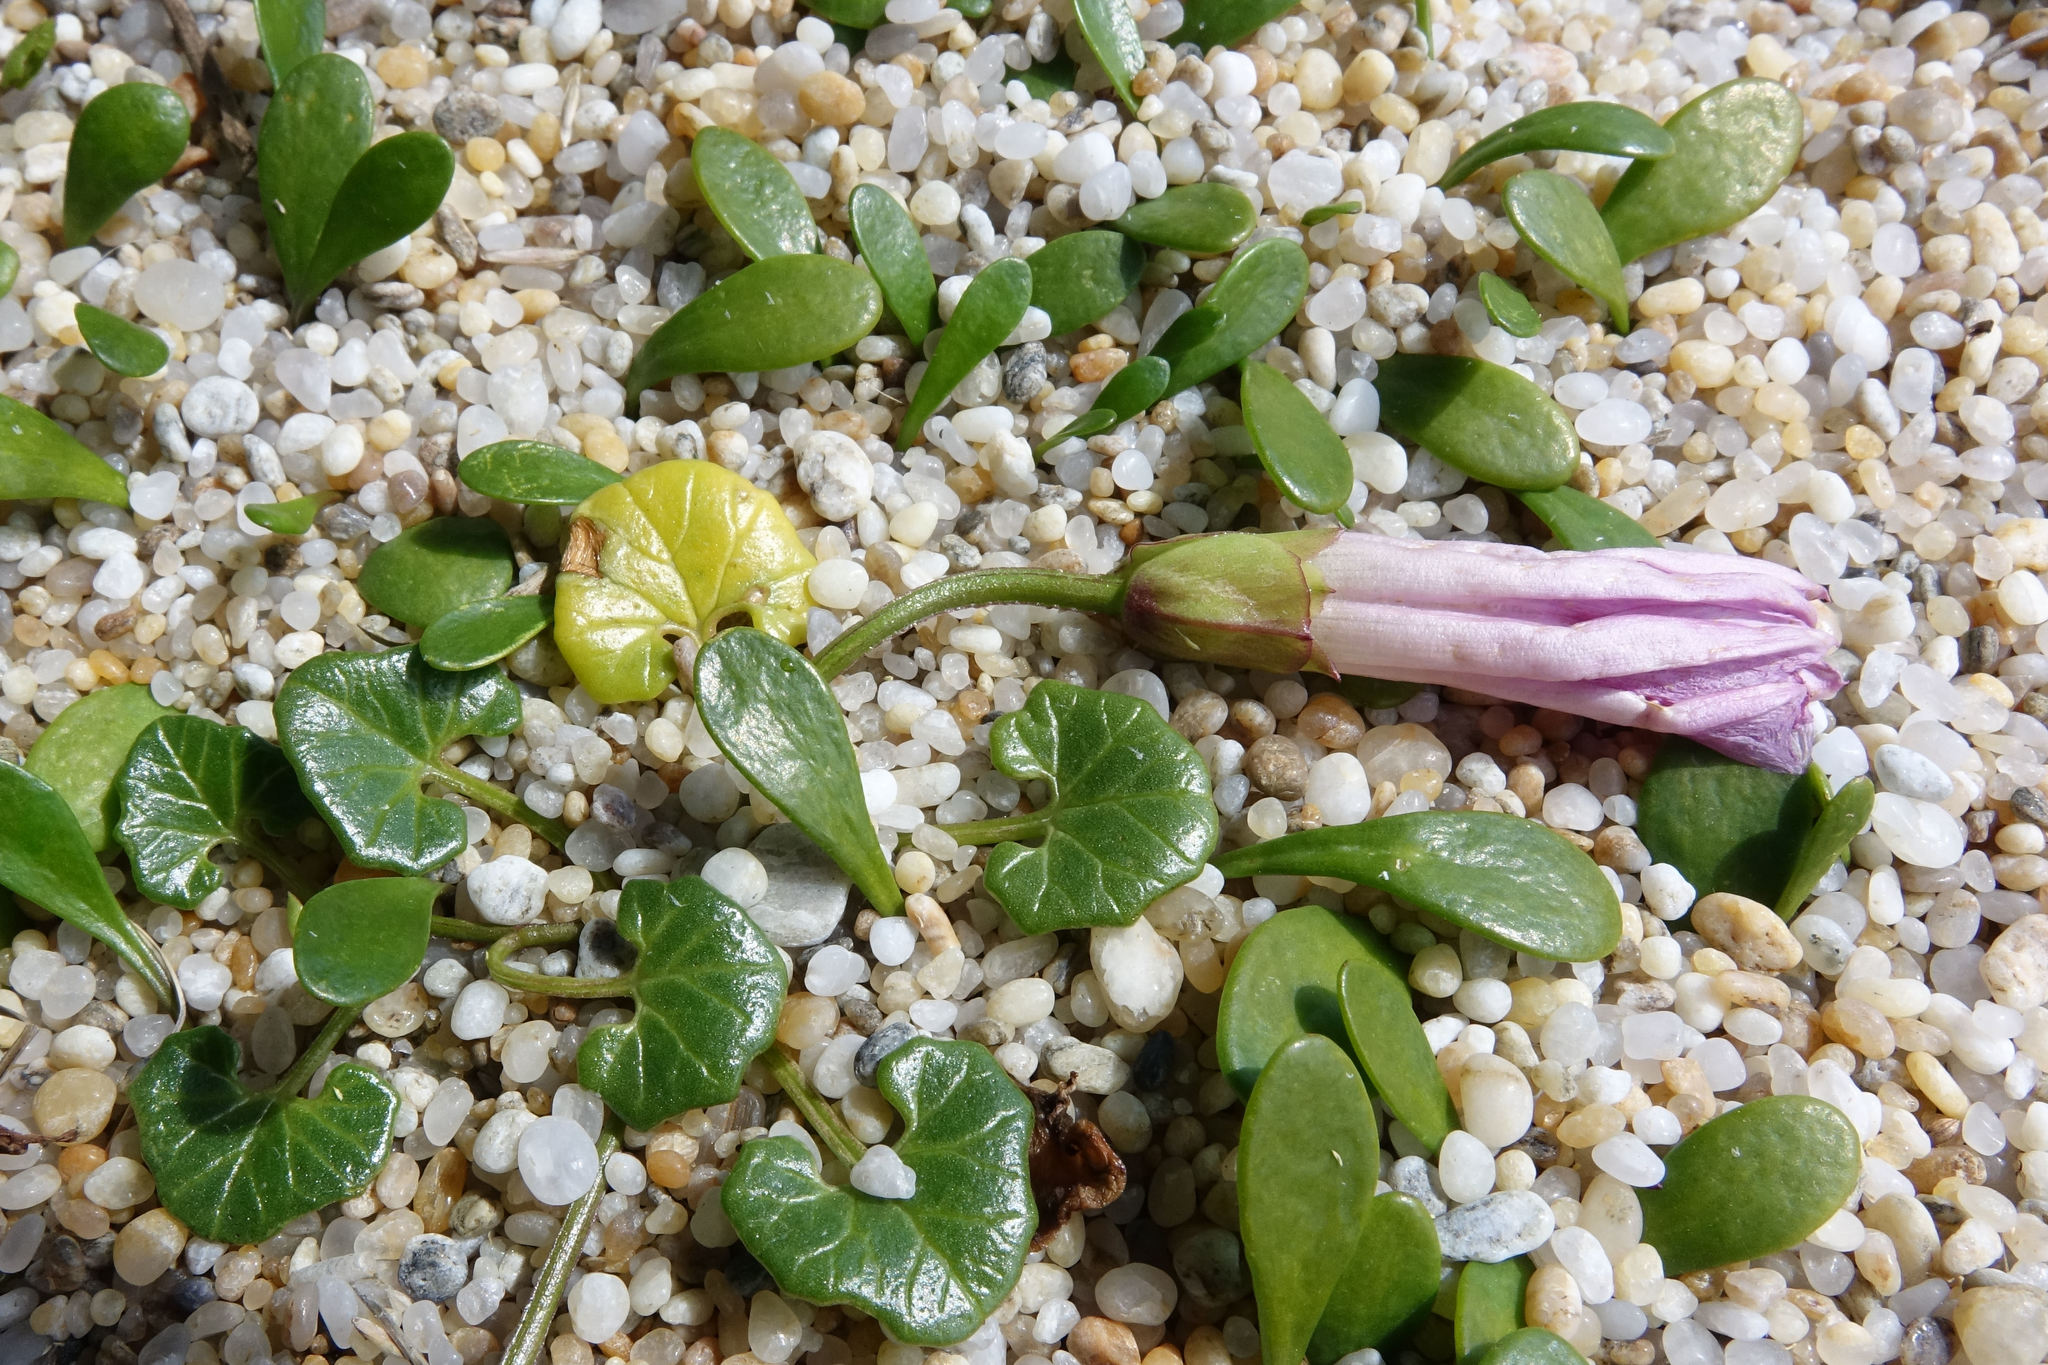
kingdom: Plantae
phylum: Tracheophyta
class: Magnoliopsida
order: Solanales
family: Convolvulaceae
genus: Calystegia
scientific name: Calystegia soldanella
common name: Sea bindweed
